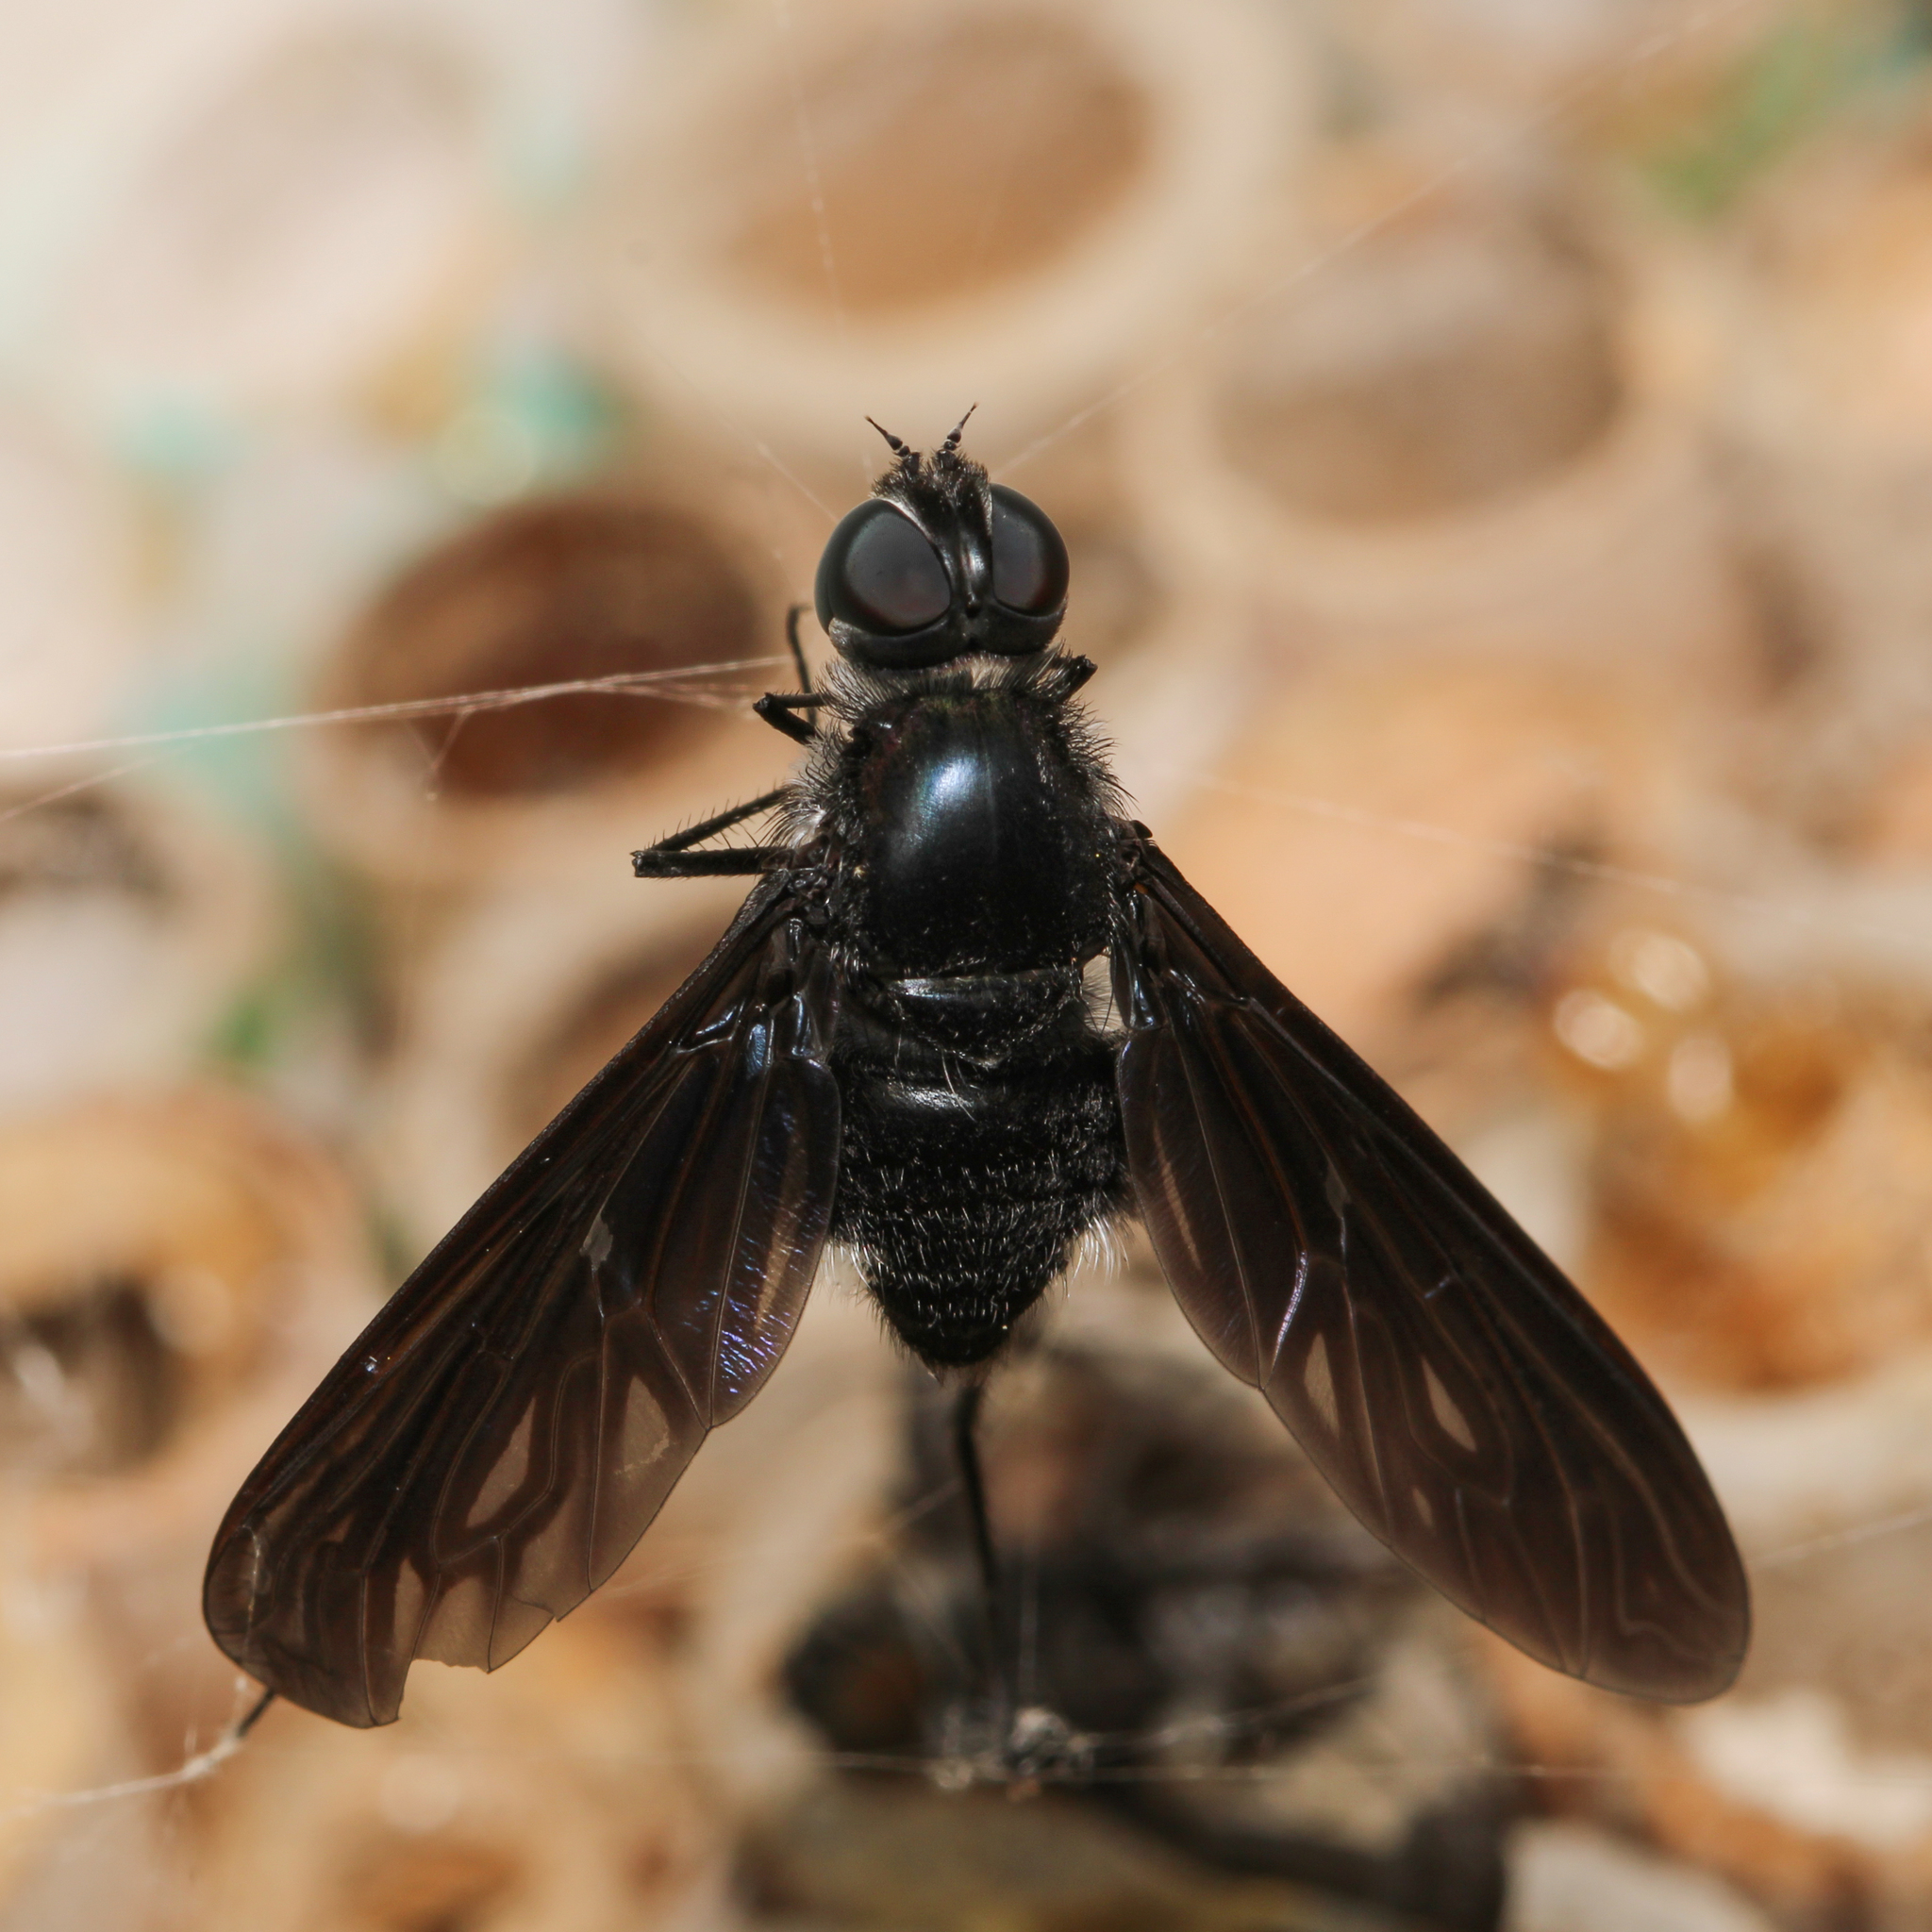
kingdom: Animalia
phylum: Arthropoda
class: Insecta
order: Diptera
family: Bombyliidae
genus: Brachyanax
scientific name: Brachyanax aterrimus
